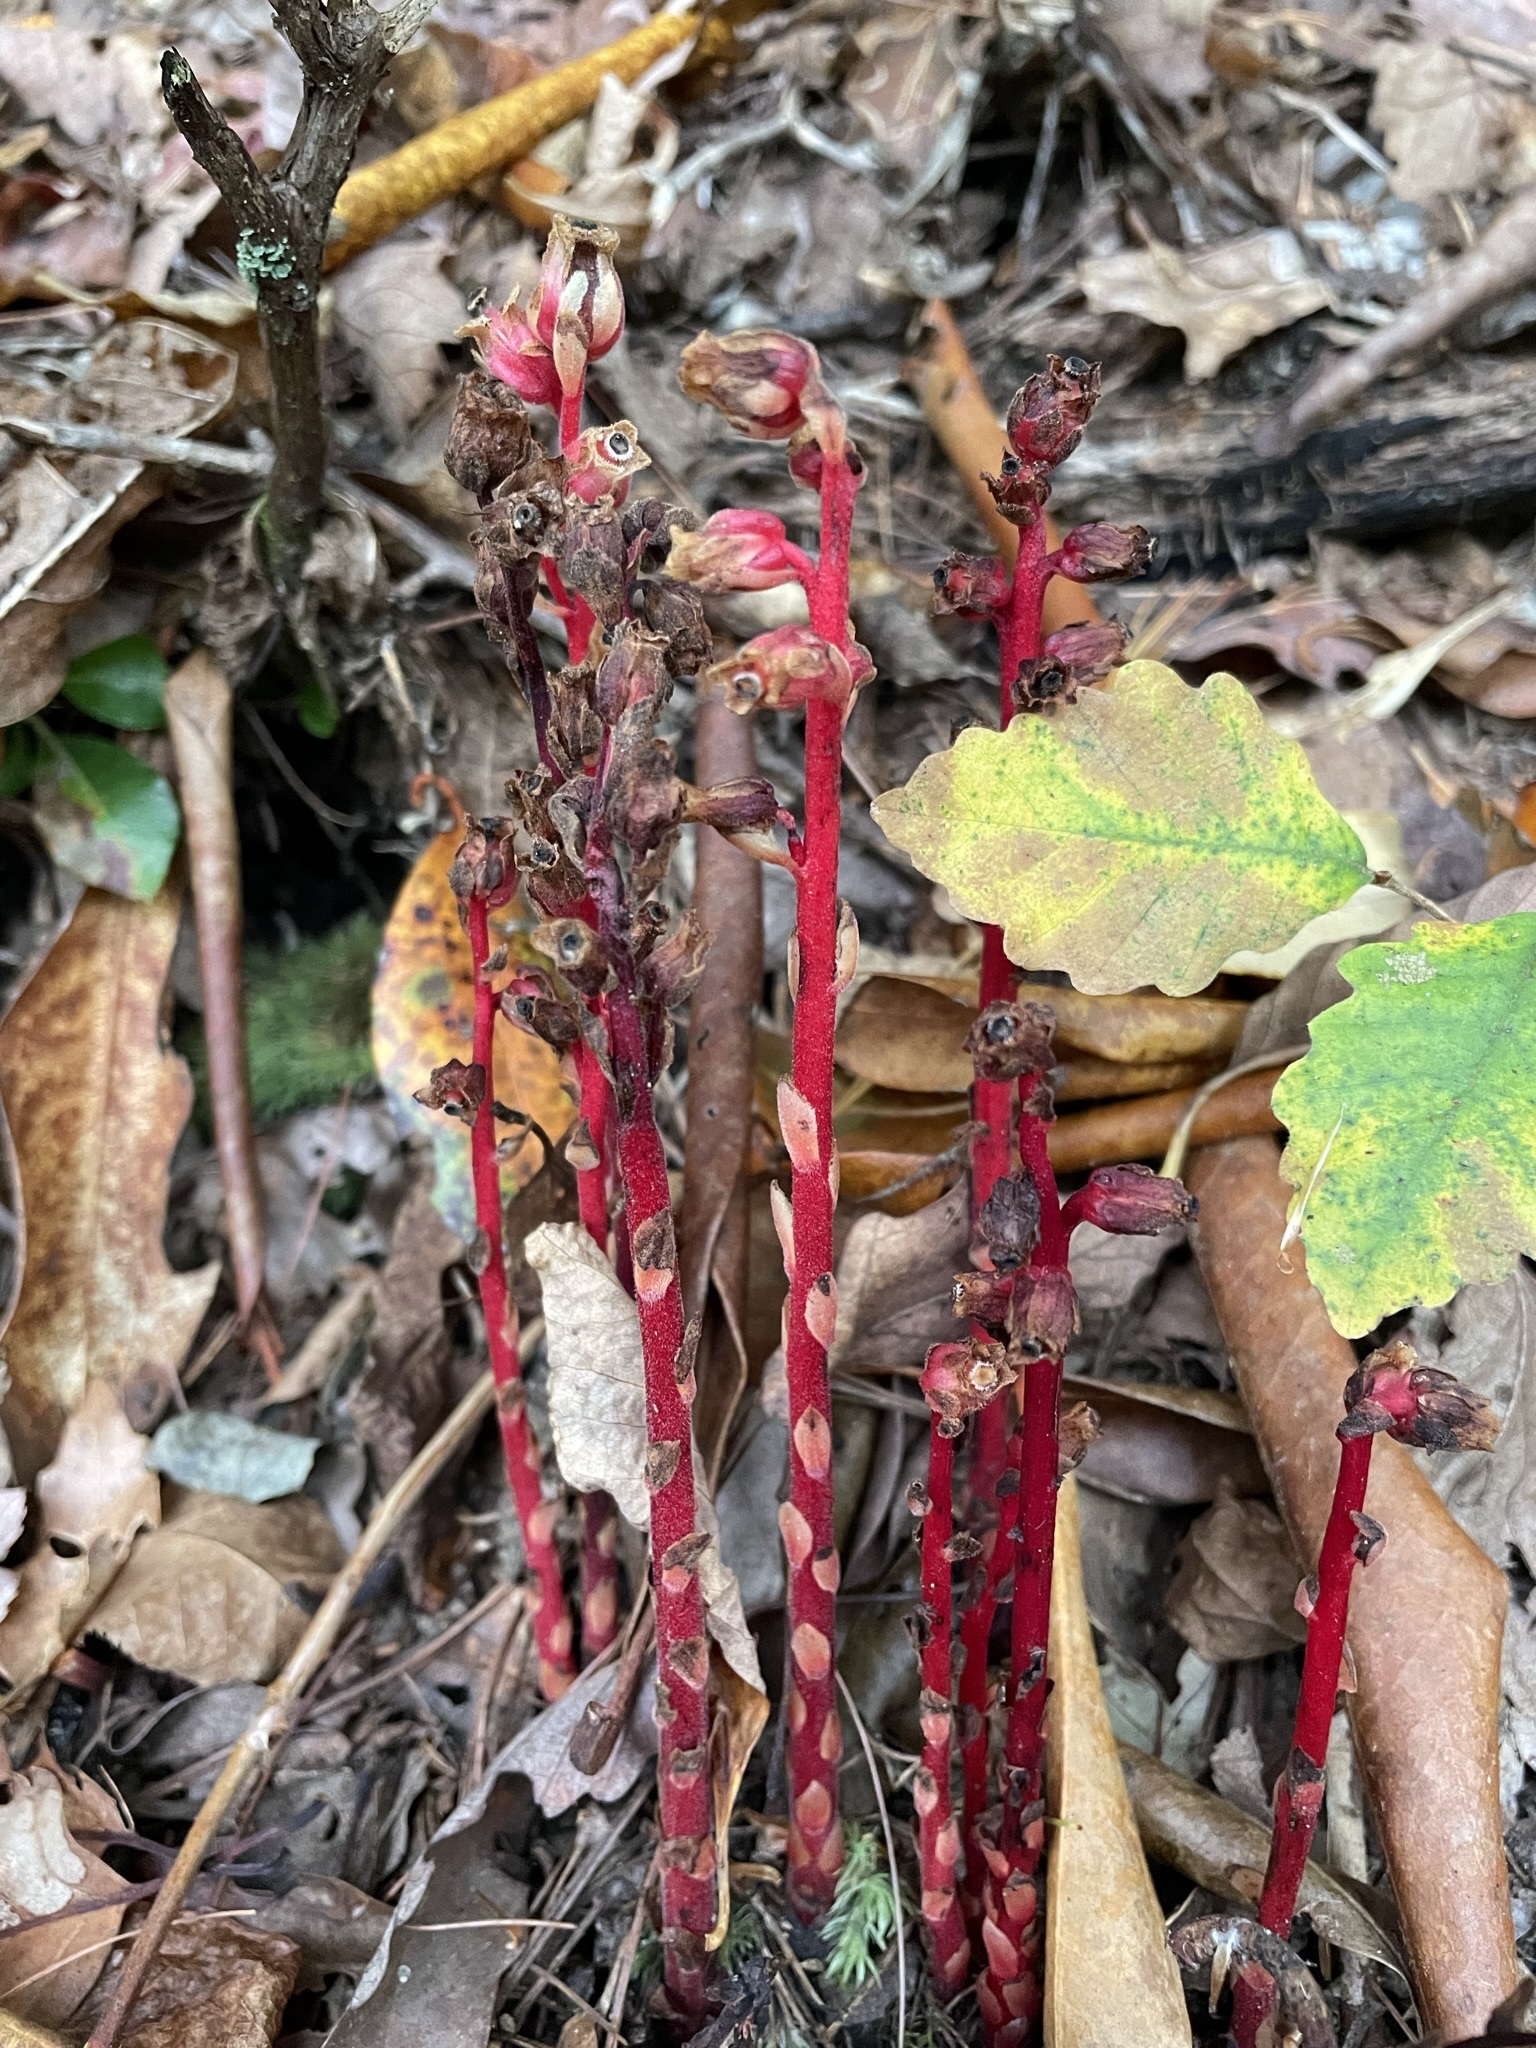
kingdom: Plantae
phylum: Tracheophyta
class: Magnoliopsida
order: Ericales
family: Ericaceae
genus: Hypopitys
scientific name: Hypopitys monotropa
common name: Yellow bird's-nest
